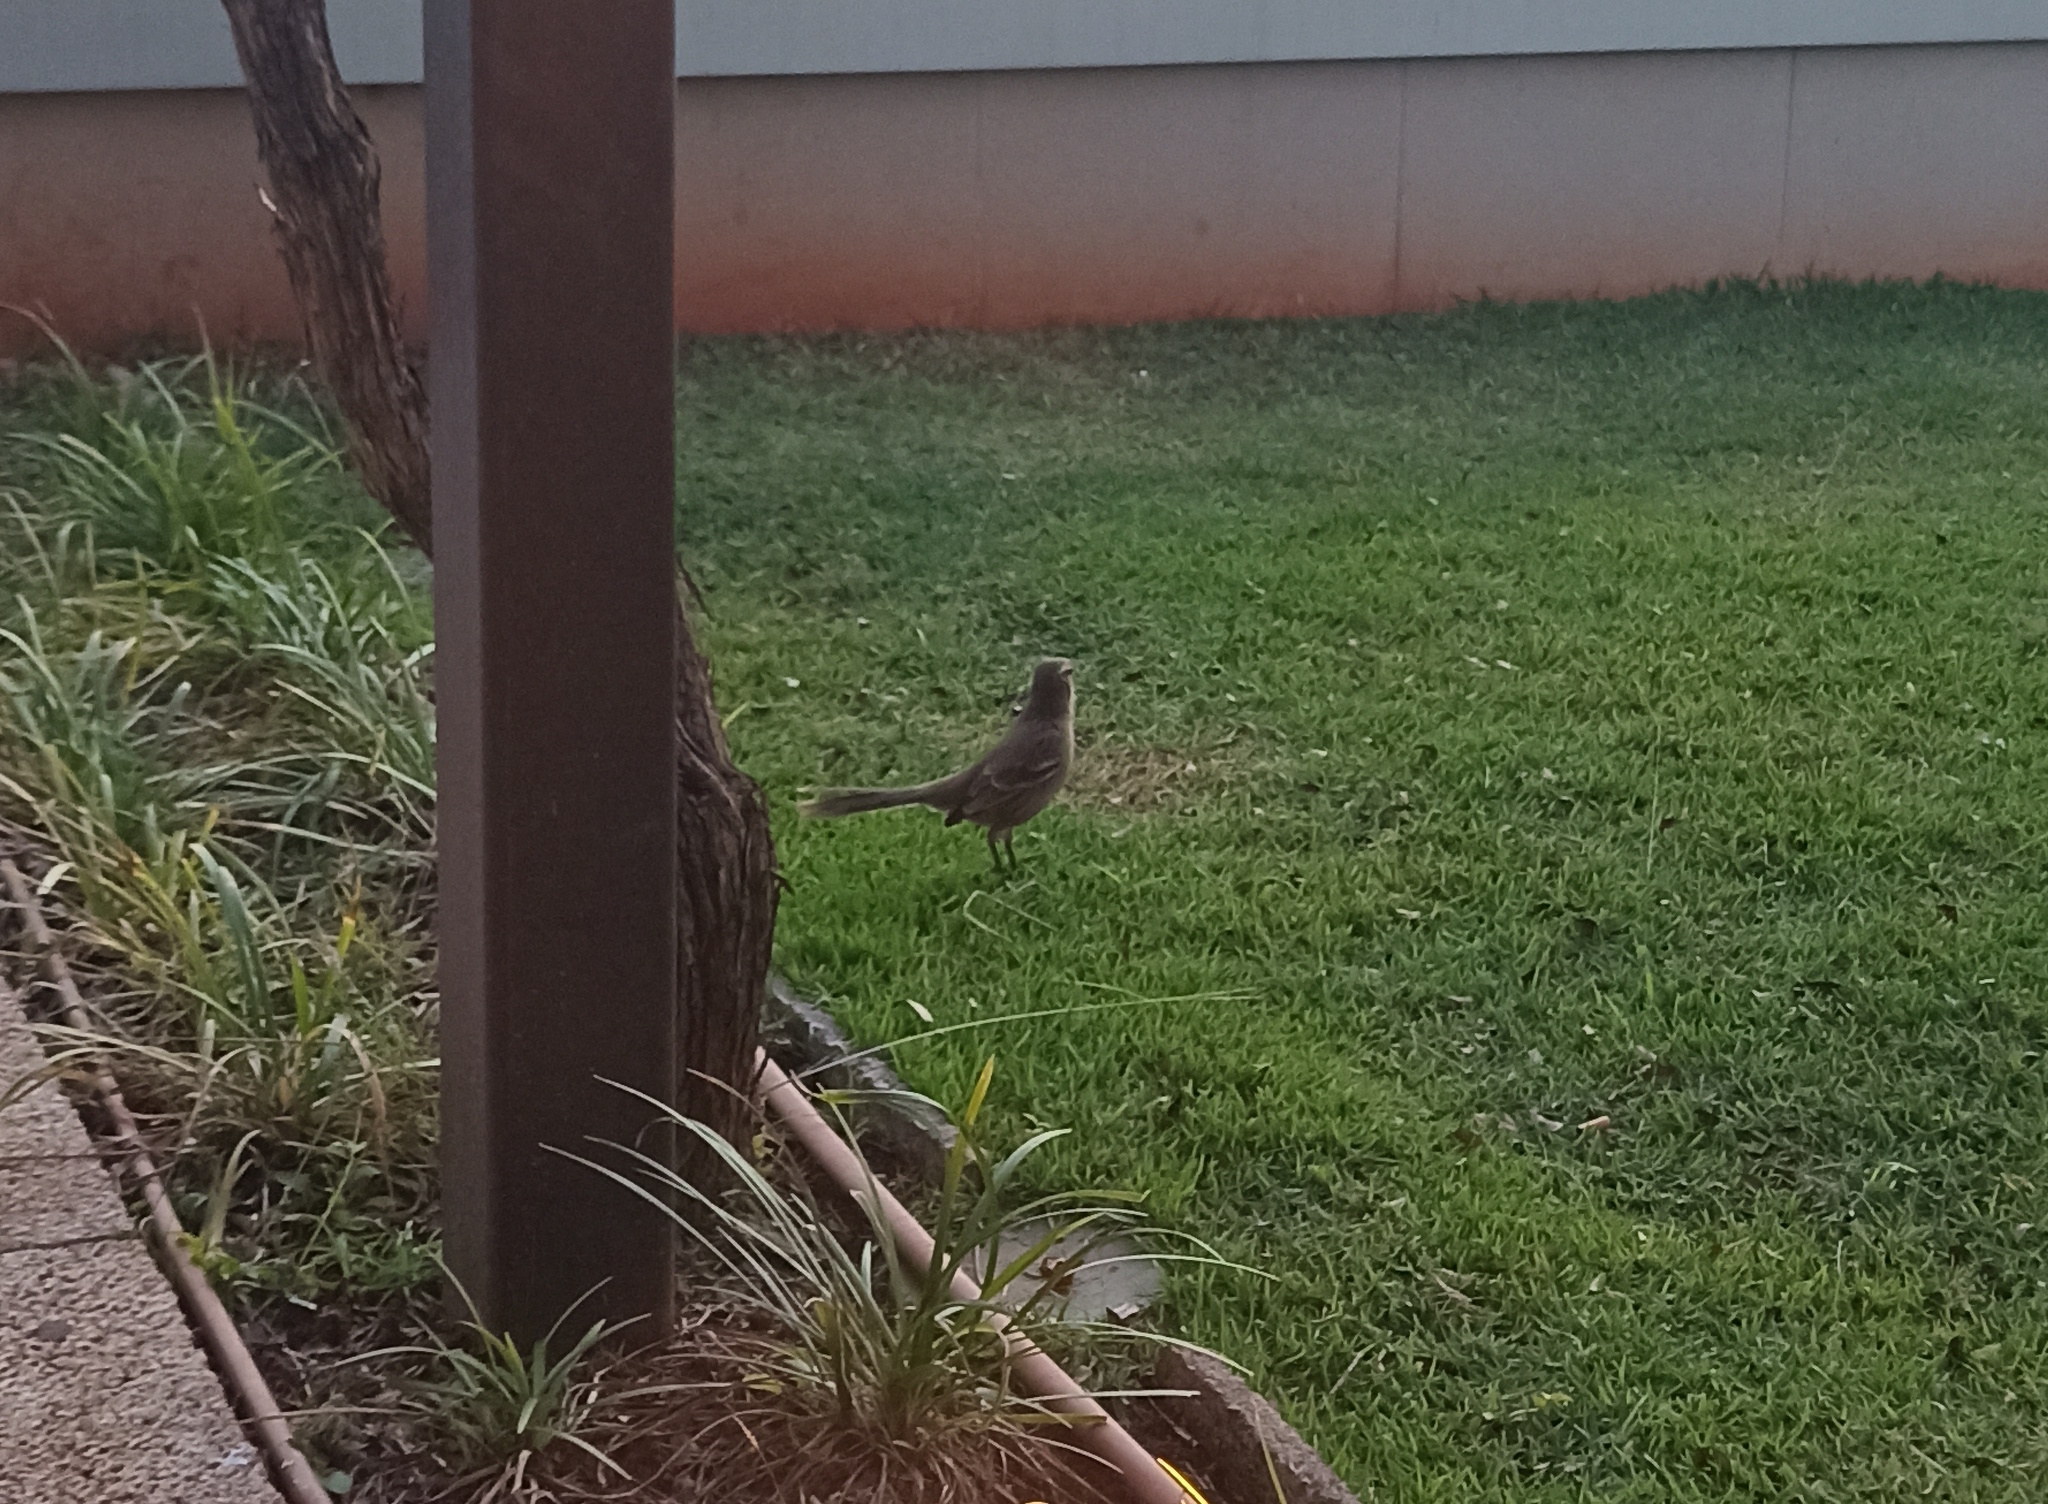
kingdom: Animalia
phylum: Chordata
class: Aves
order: Passeriformes
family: Mimidae
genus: Mimus
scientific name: Mimus saturninus
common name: Chalk-browed mockingbird
